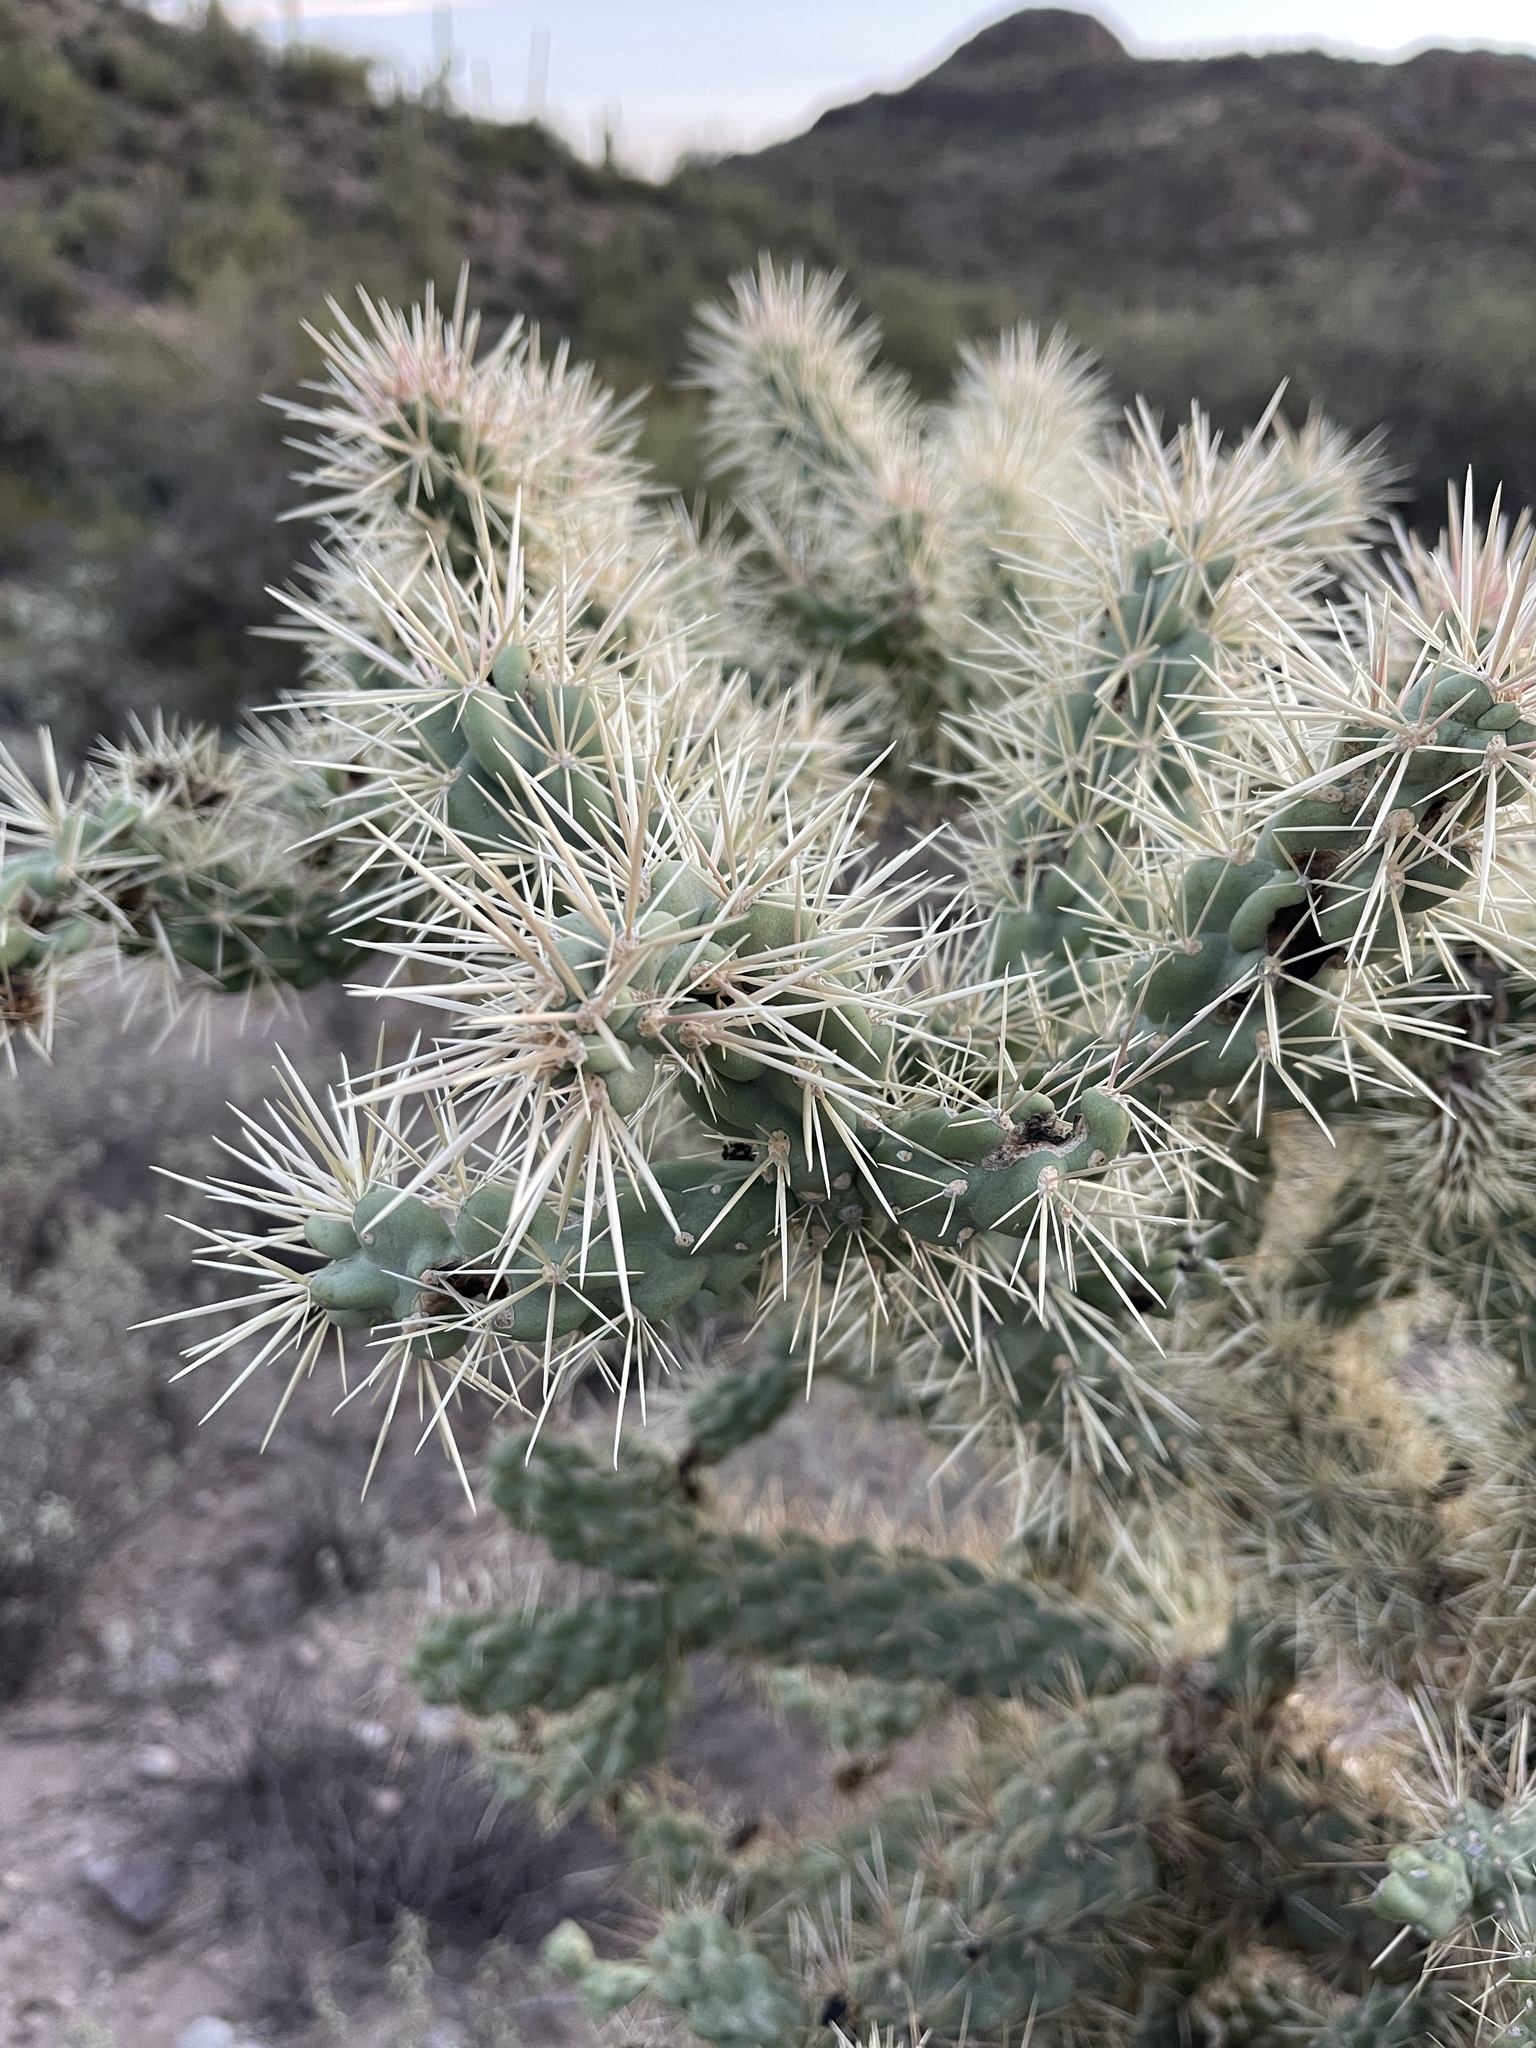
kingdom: Plantae
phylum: Tracheophyta
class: Magnoliopsida
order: Caryophyllales
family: Cactaceae
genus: Cylindropuntia
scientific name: Cylindropuntia fulgida
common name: Jumping cholla
